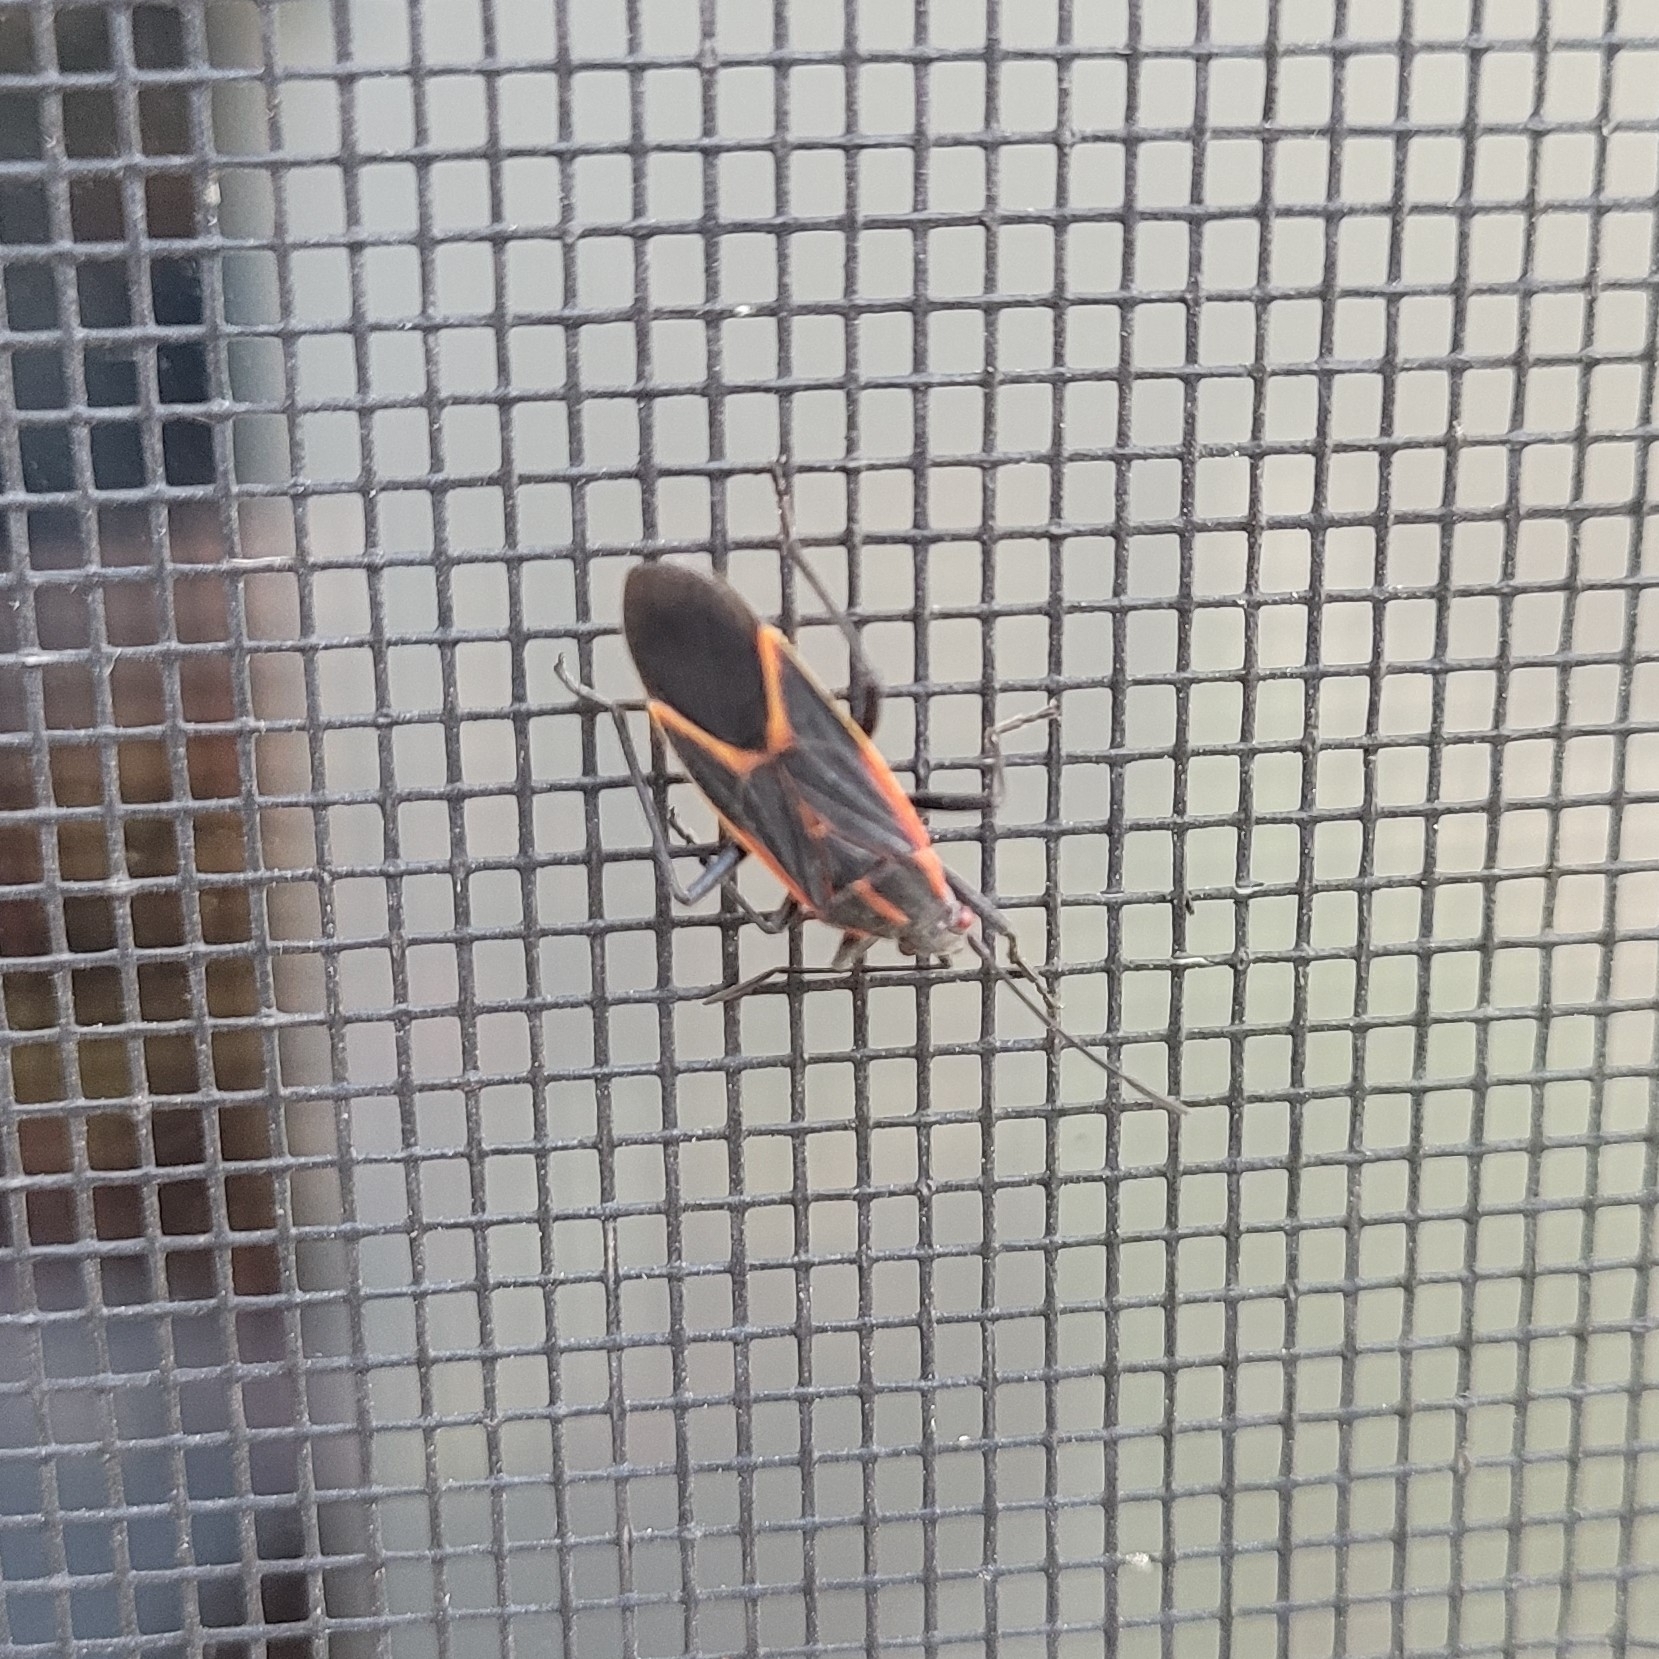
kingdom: Animalia
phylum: Arthropoda
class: Insecta
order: Hemiptera
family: Rhopalidae
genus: Boisea
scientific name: Boisea trivittata
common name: Boxelder bug
